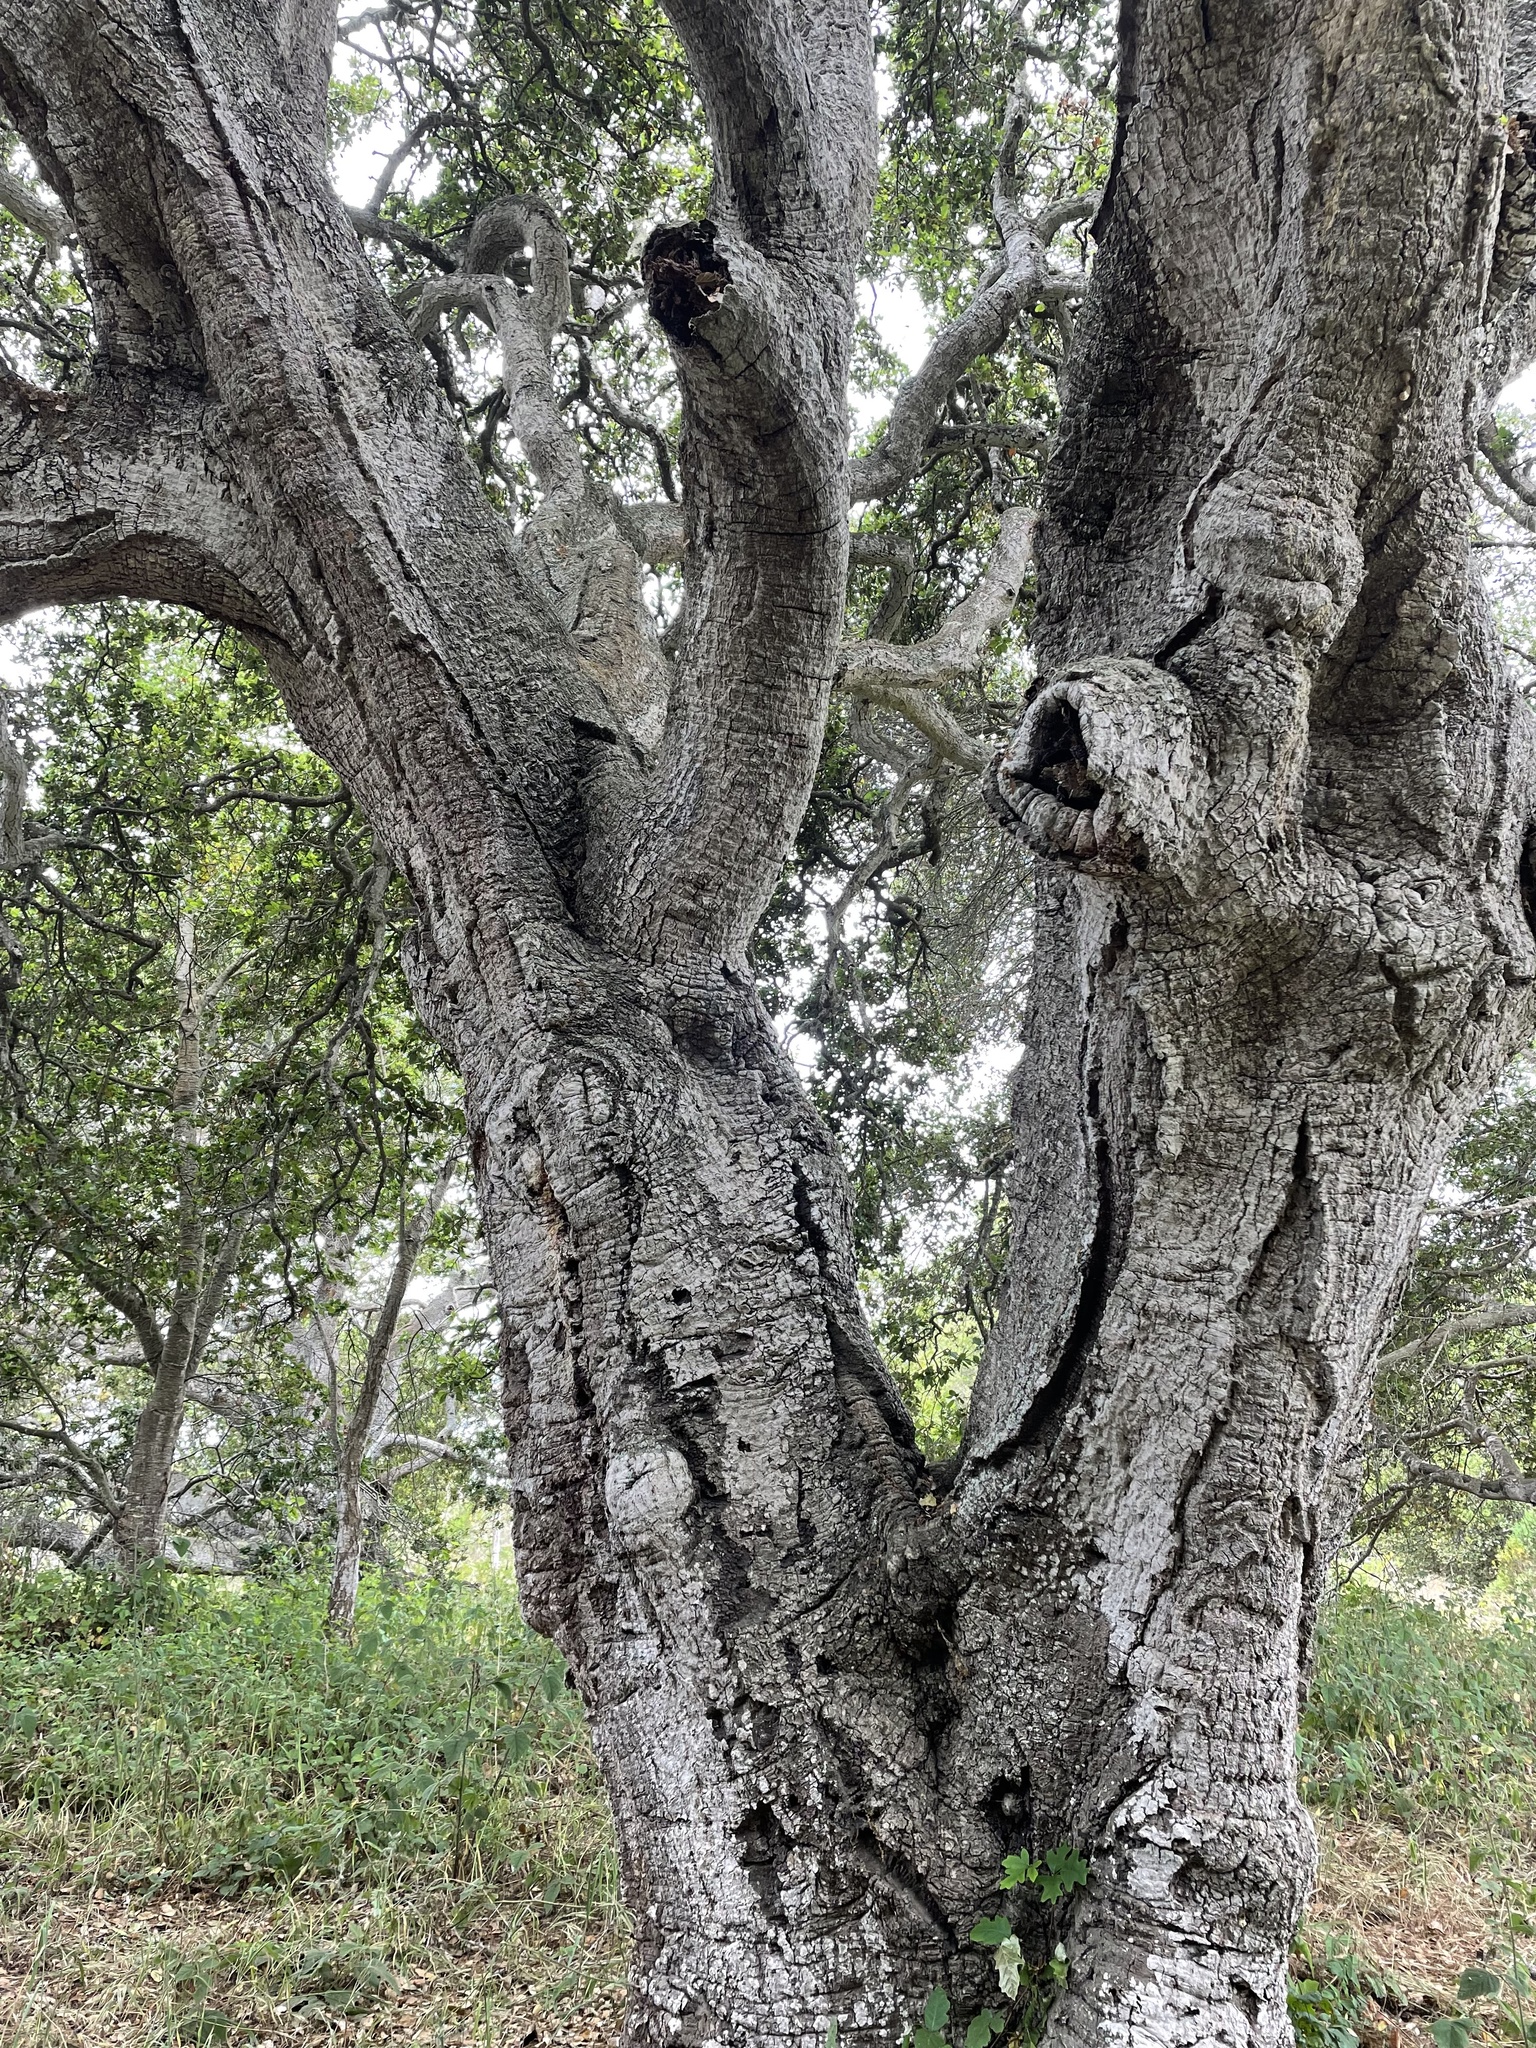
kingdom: Plantae
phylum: Tracheophyta
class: Magnoliopsida
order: Fagales
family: Fagaceae
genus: Quercus
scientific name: Quercus agrifolia
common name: California live oak
